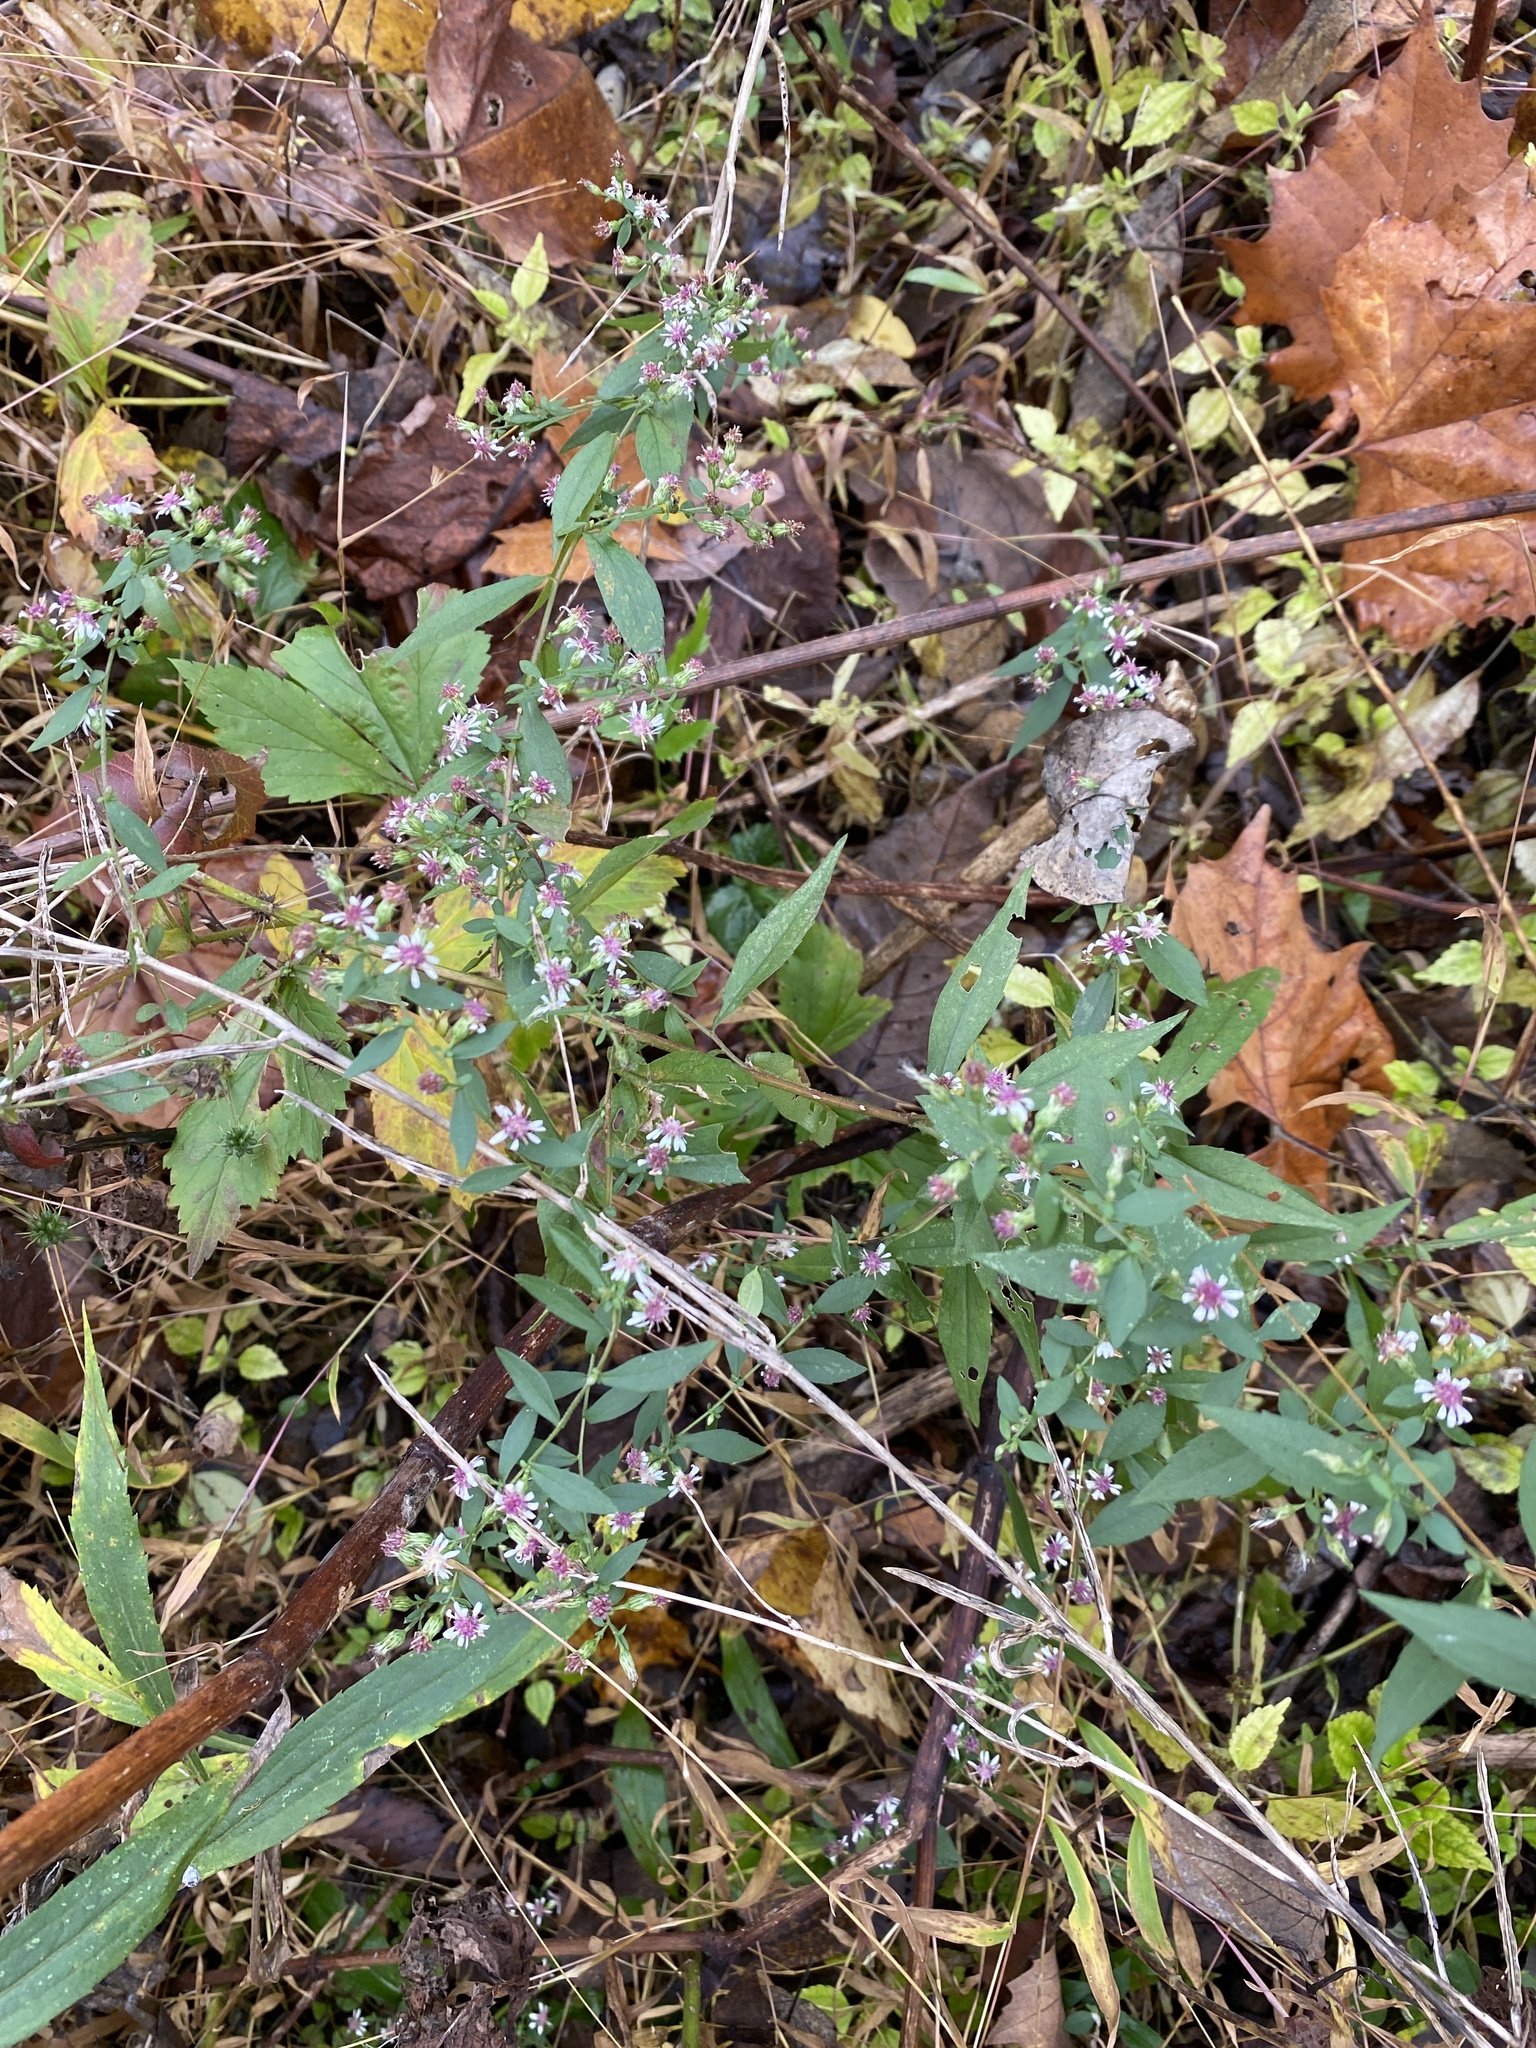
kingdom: Plantae
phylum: Tracheophyta
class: Magnoliopsida
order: Asterales
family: Asteraceae
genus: Symphyotrichum
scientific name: Symphyotrichum lateriflorum
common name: Calico aster
